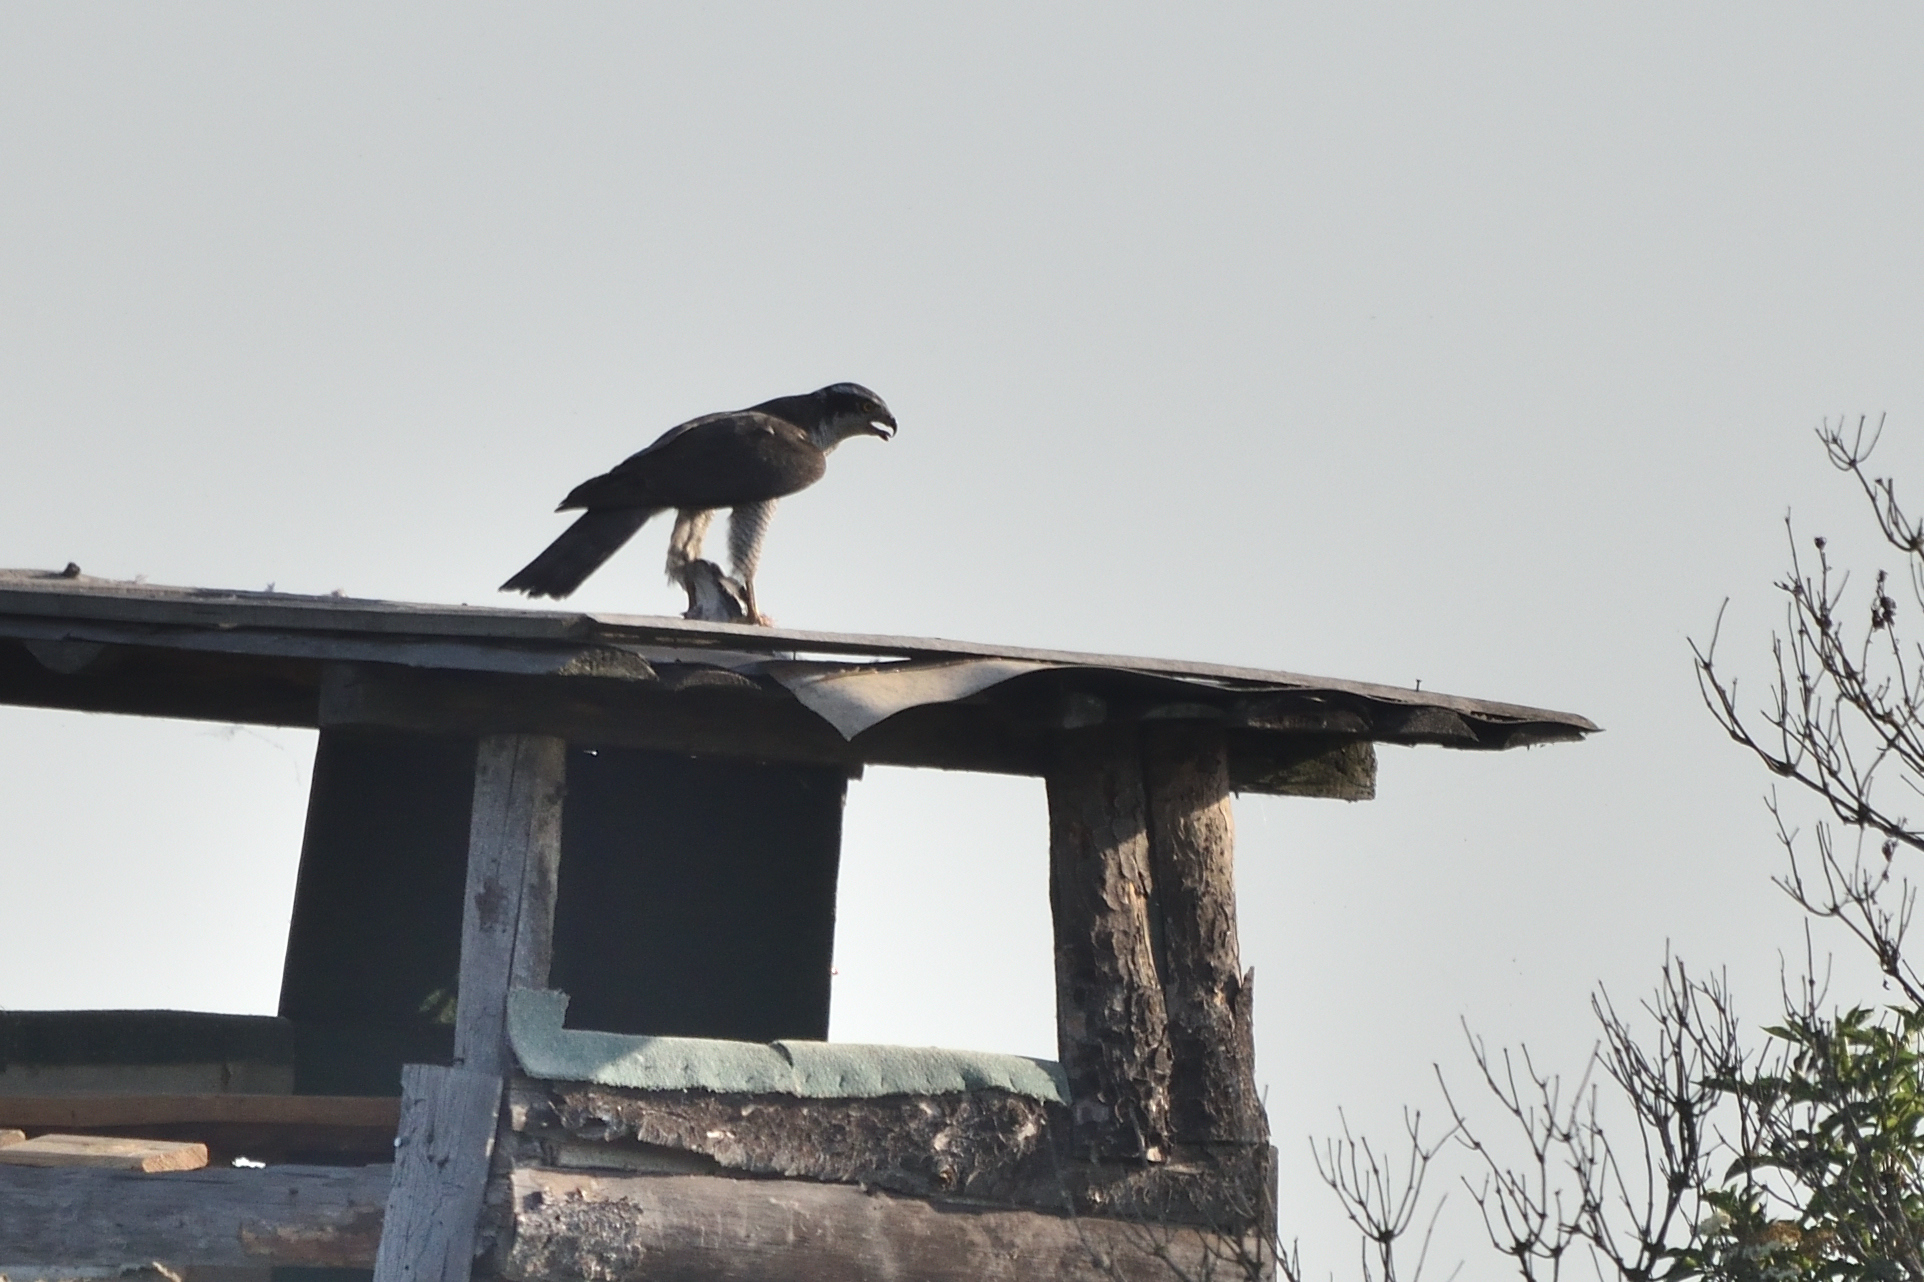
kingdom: Animalia
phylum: Chordata
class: Aves
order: Accipitriformes
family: Accipitridae
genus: Accipiter
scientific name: Accipiter gentilis
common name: Northern goshawk
